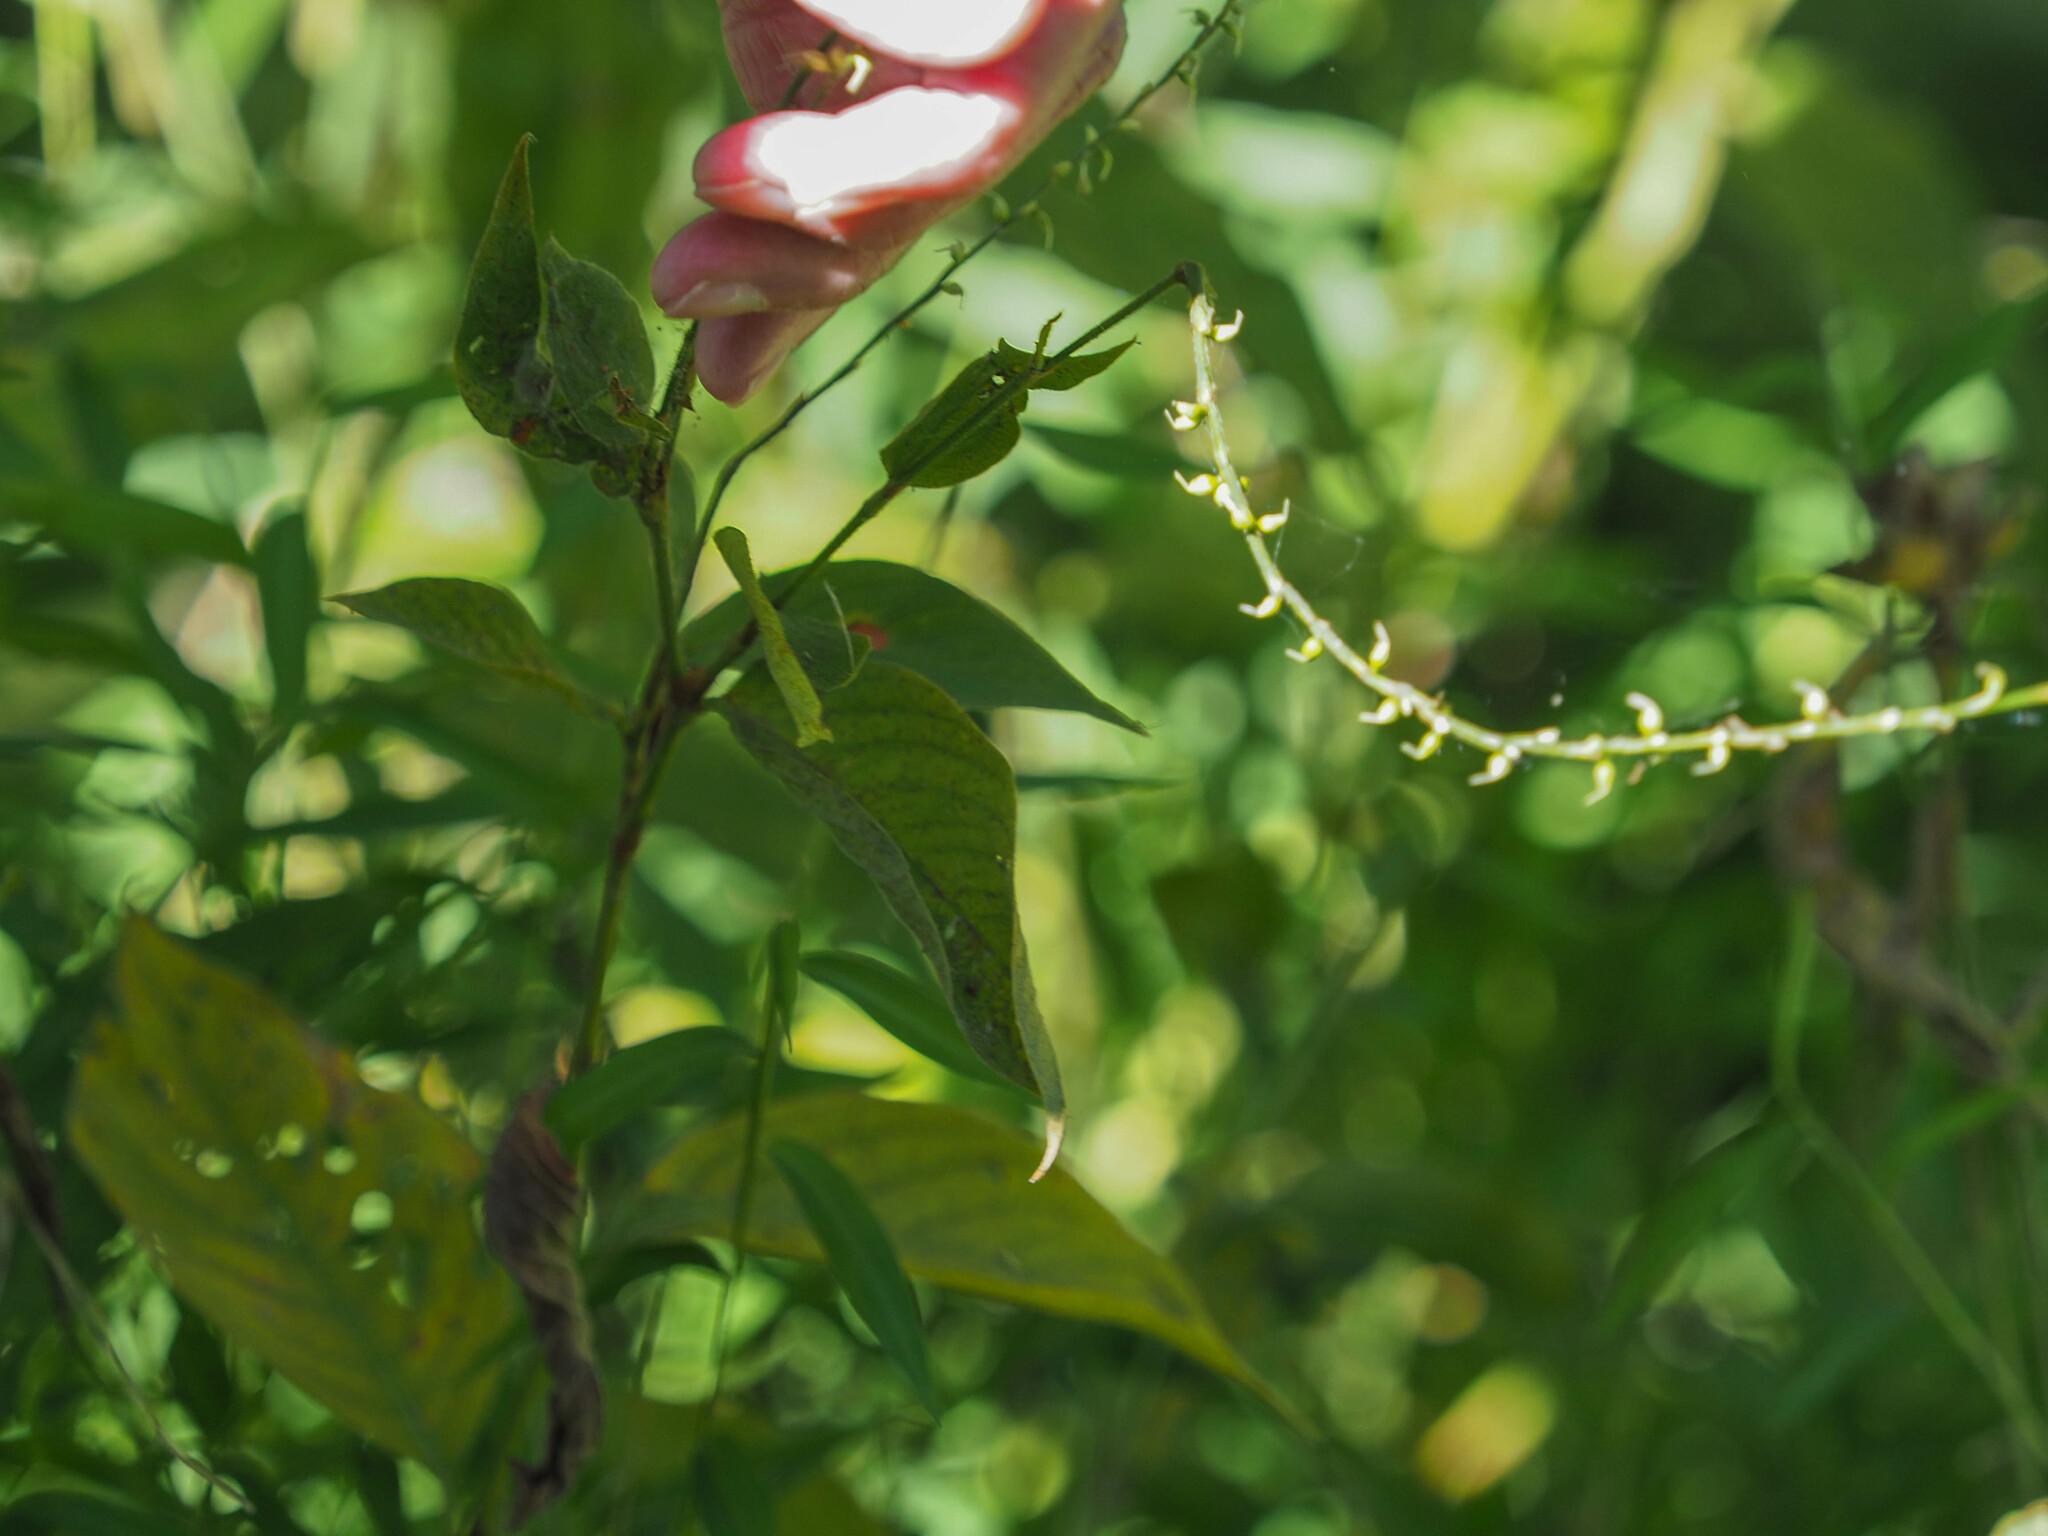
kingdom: Plantae
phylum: Tracheophyta
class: Magnoliopsida
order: Caryophyllales
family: Polygonaceae
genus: Persicaria
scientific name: Persicaria virginiana
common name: Jumpseed
